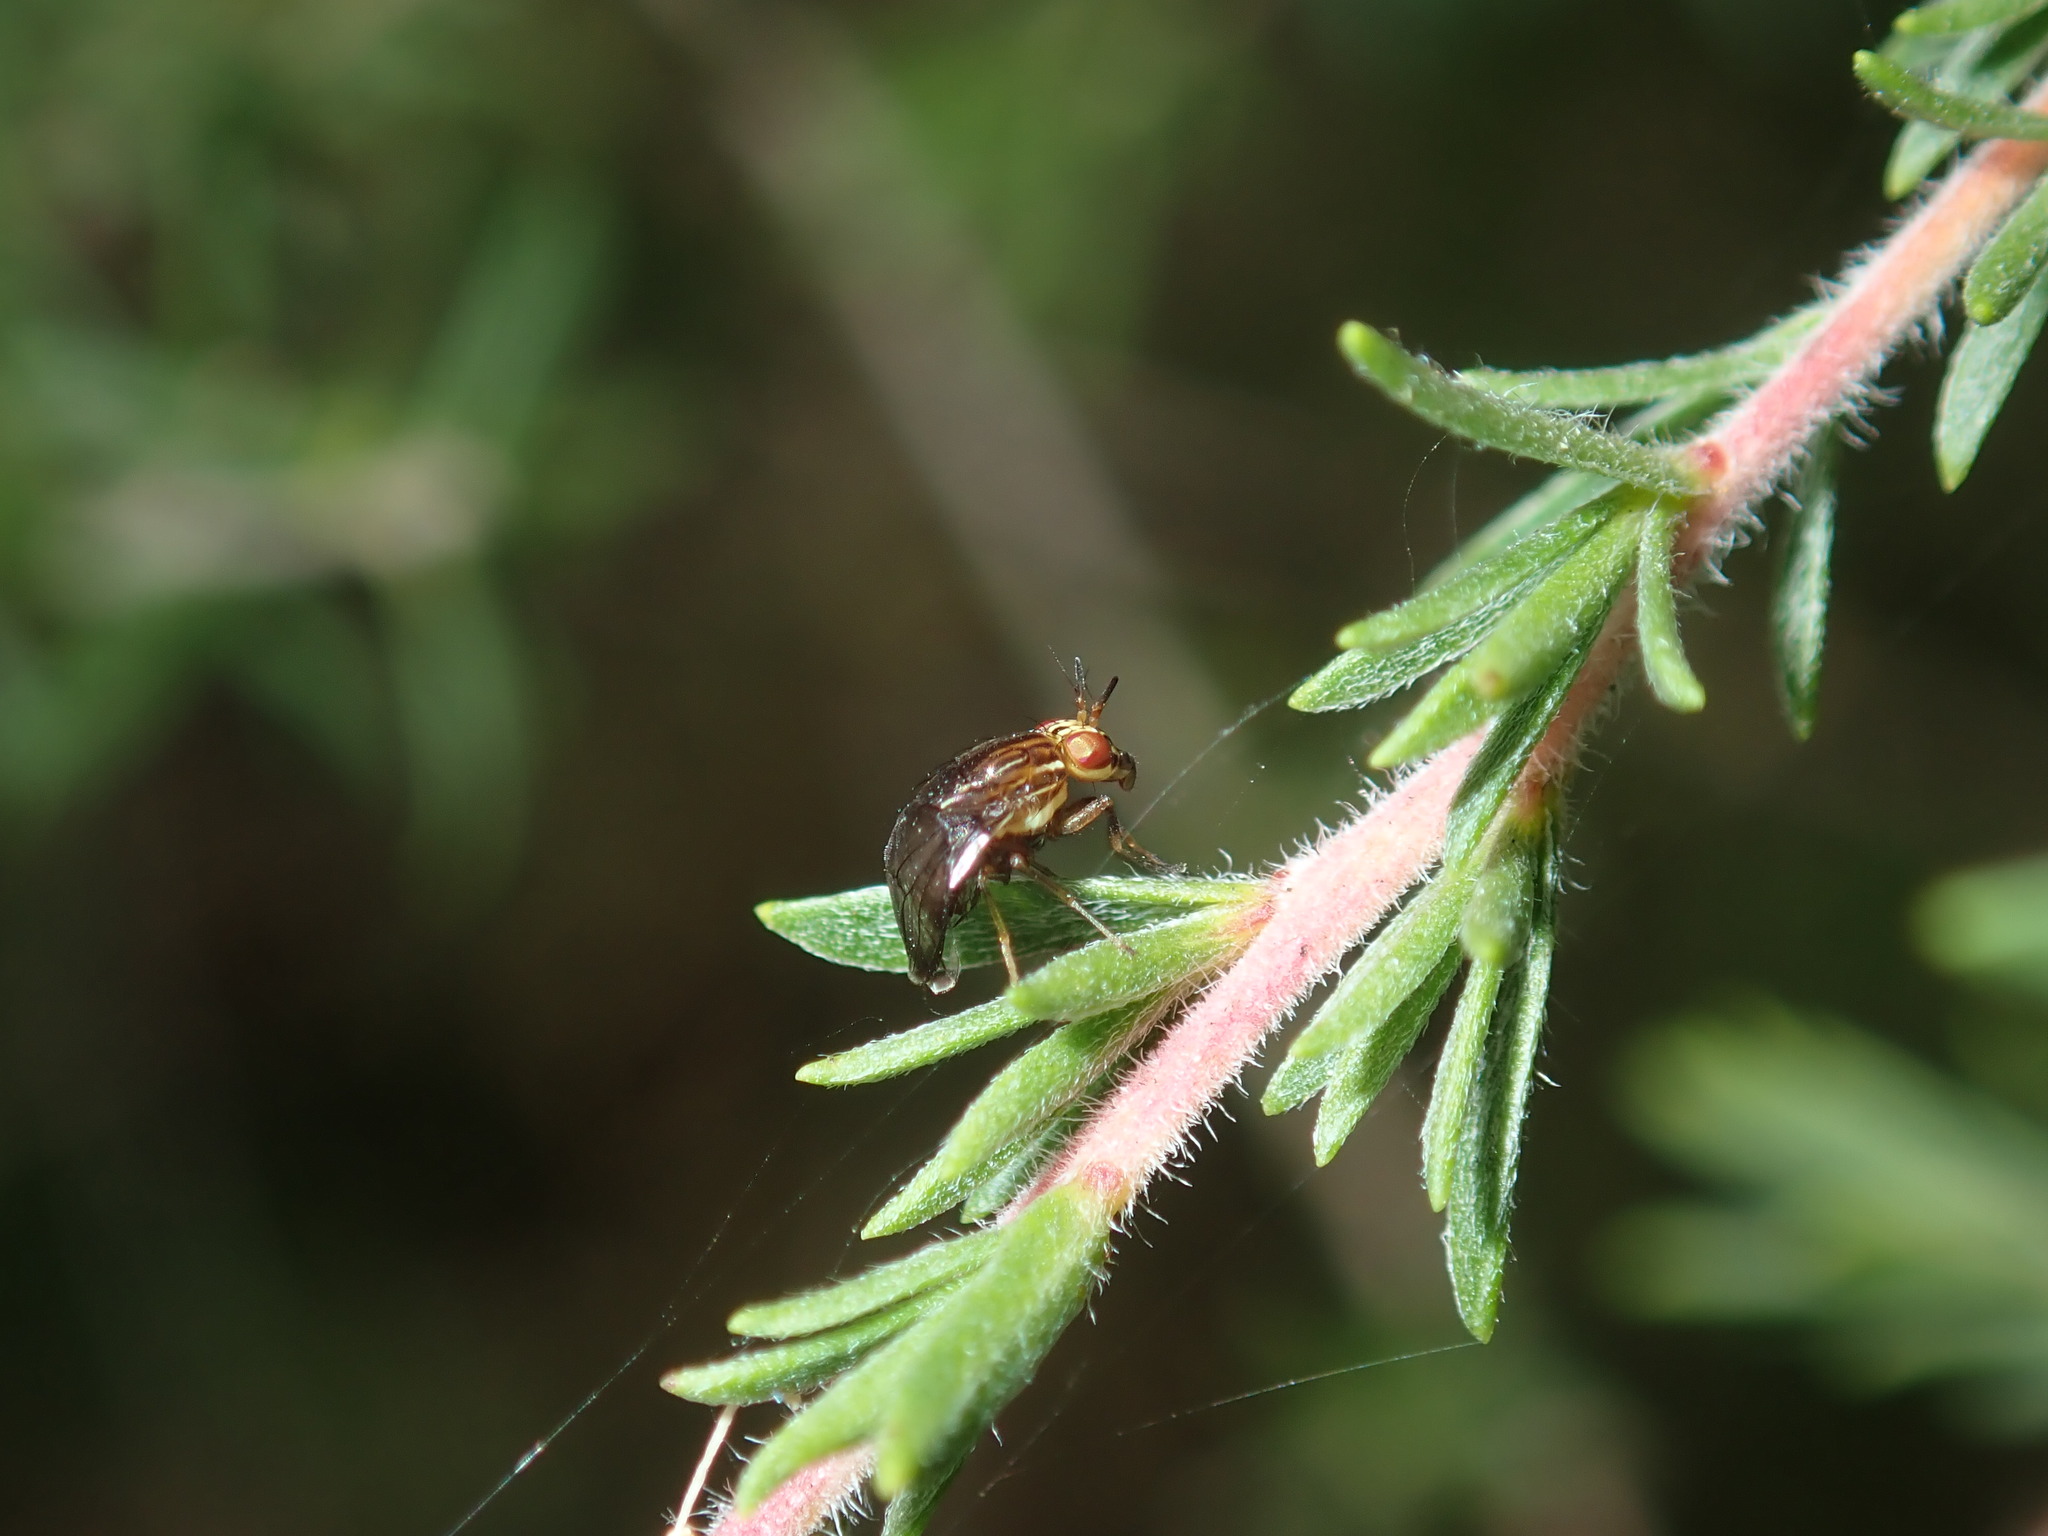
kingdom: Animalia
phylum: Arthropoda
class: Insecta
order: Diptera
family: Lauxaniidae
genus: Steganopsis
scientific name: Steganopsis melanogaster
